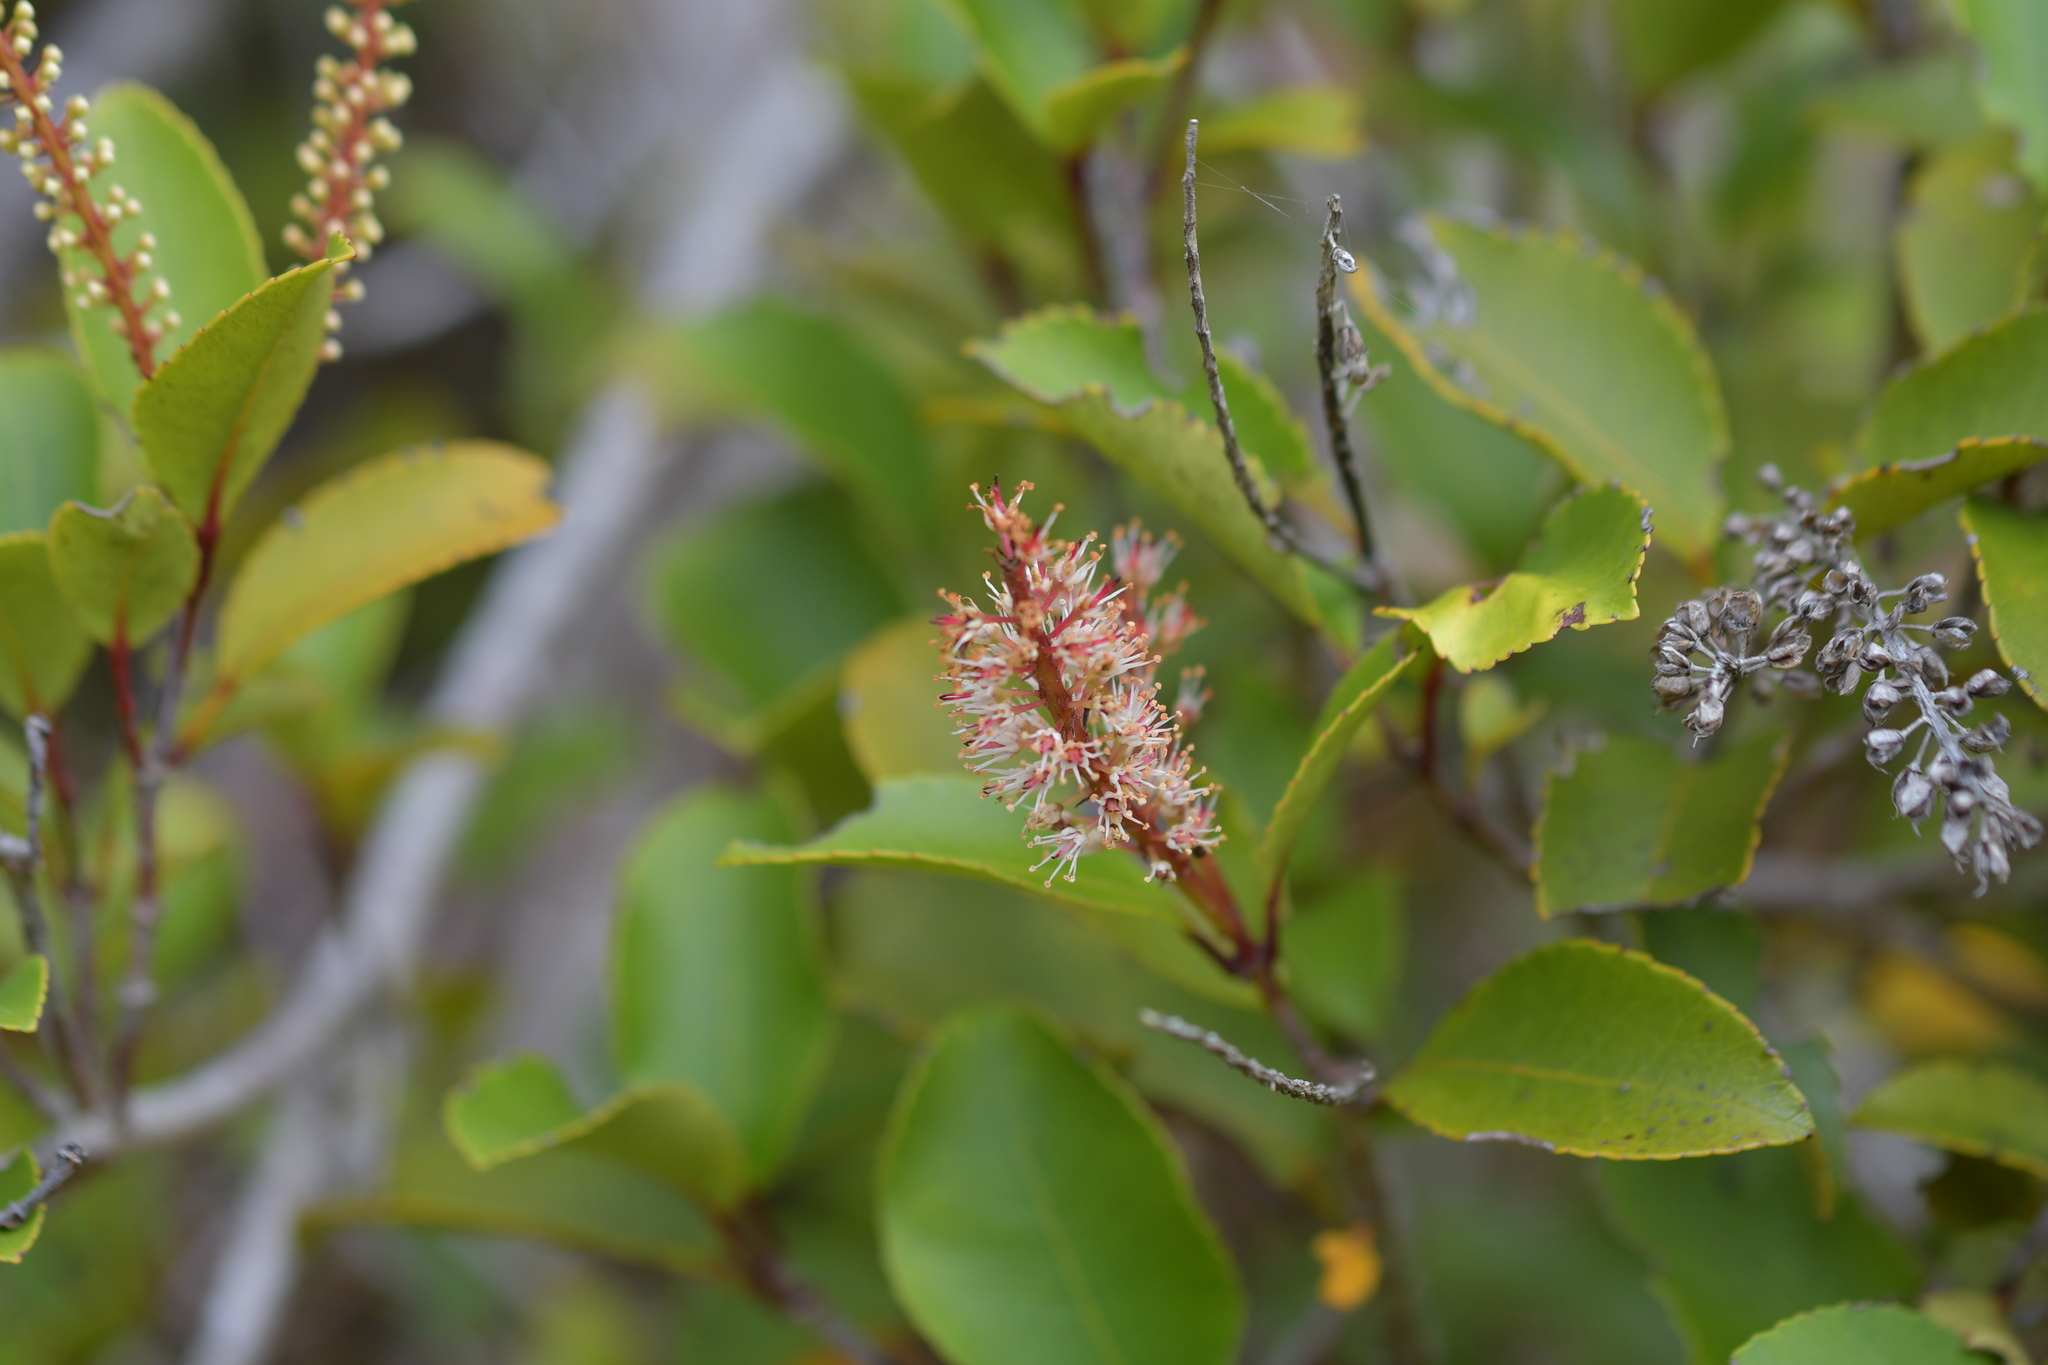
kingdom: Plantae
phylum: Tracheophyta
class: Magnoliopsida
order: Oxalidales
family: Cunoniaceae
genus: Pterophylla
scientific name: Pterophylla racemosa
